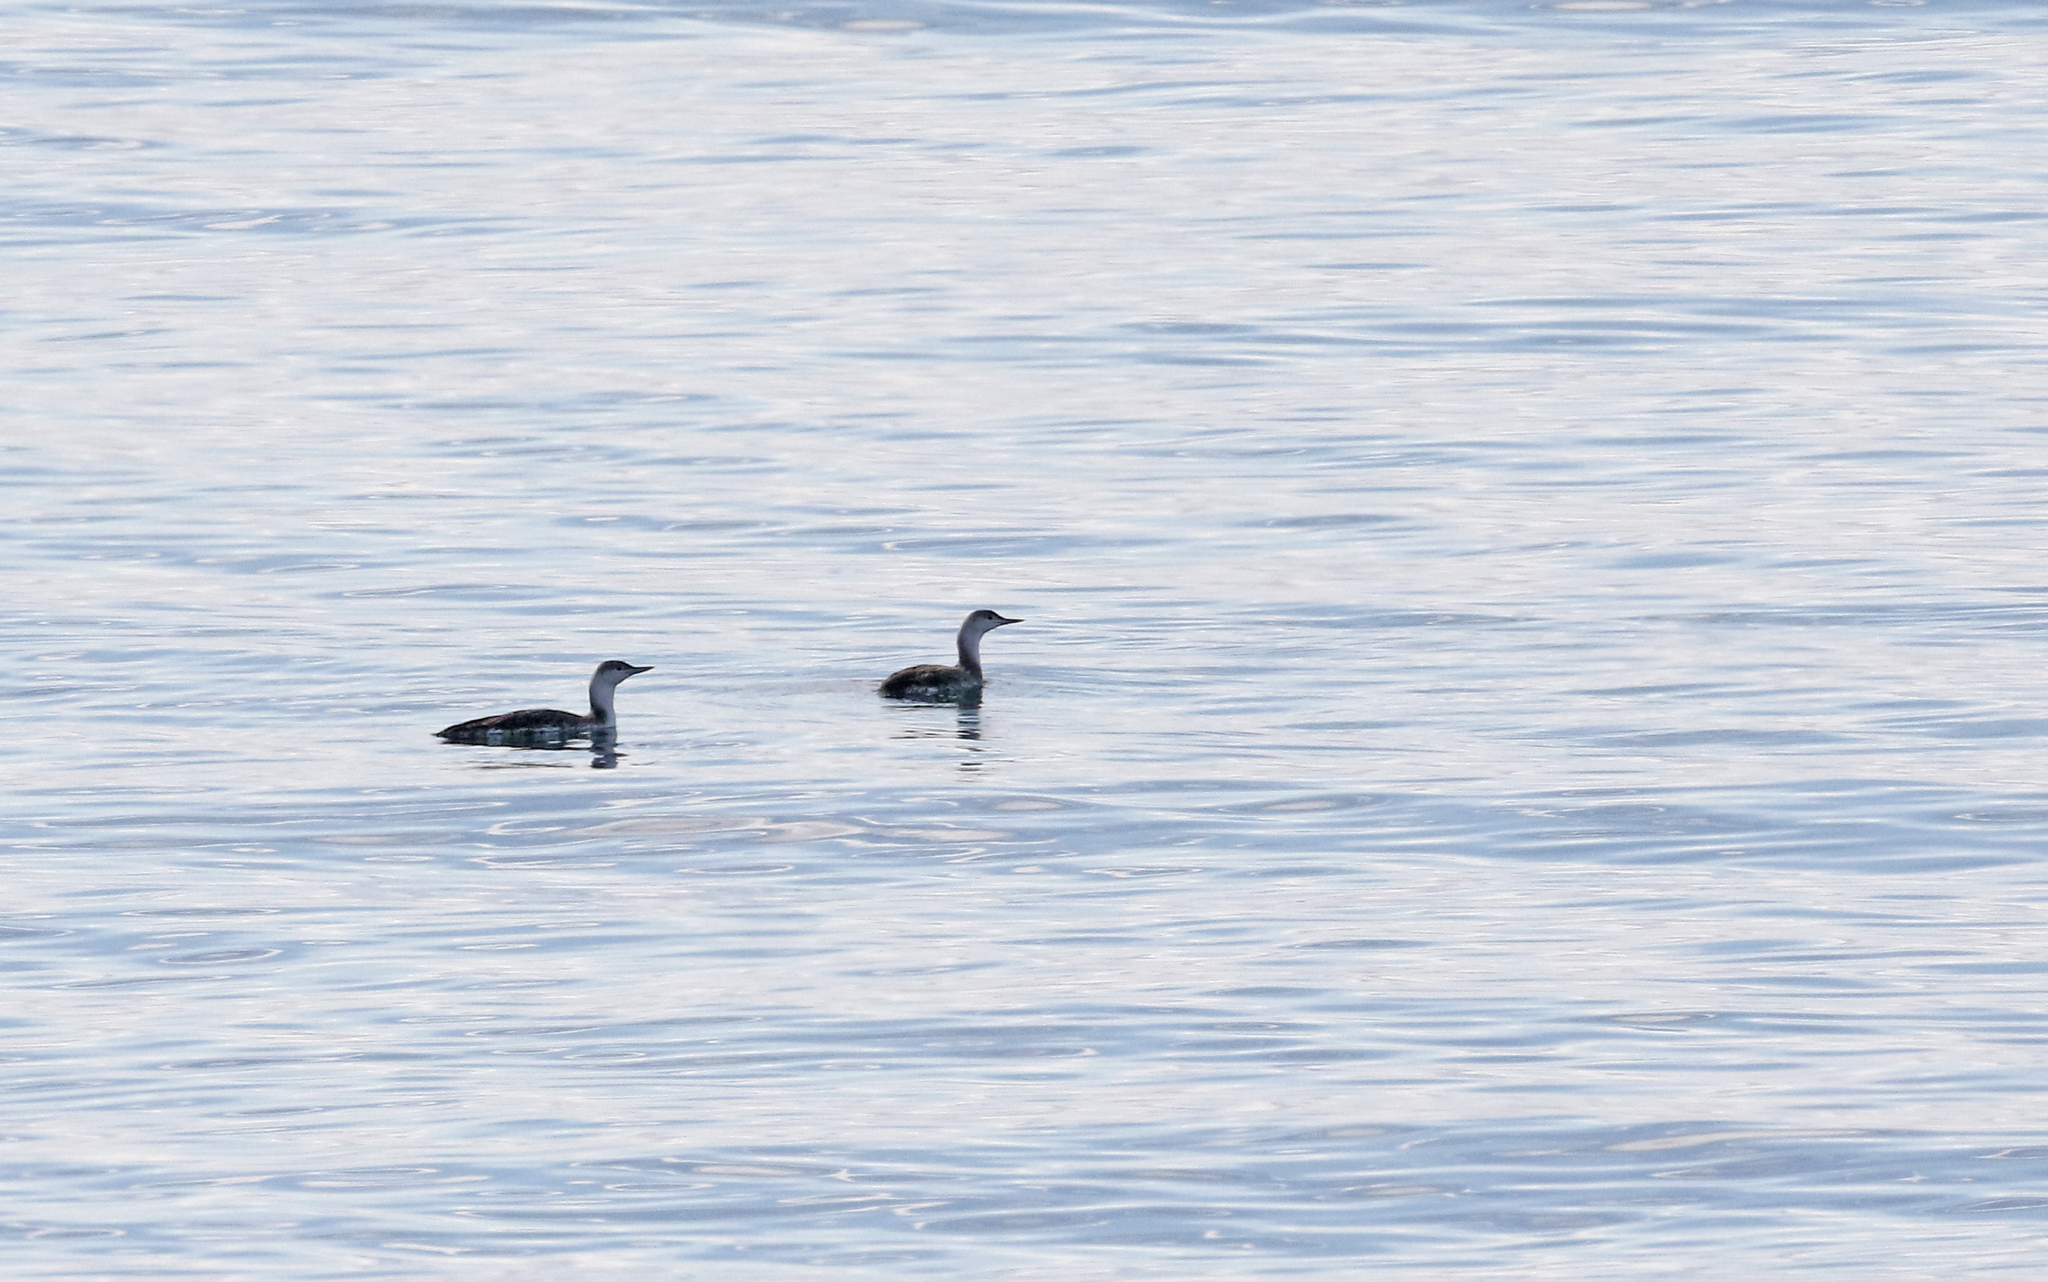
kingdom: Animalia
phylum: Chordata
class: Aves
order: Gaviiformes
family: Gaviidae
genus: Gavia
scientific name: Gavia stellata
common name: Red-throated loon
